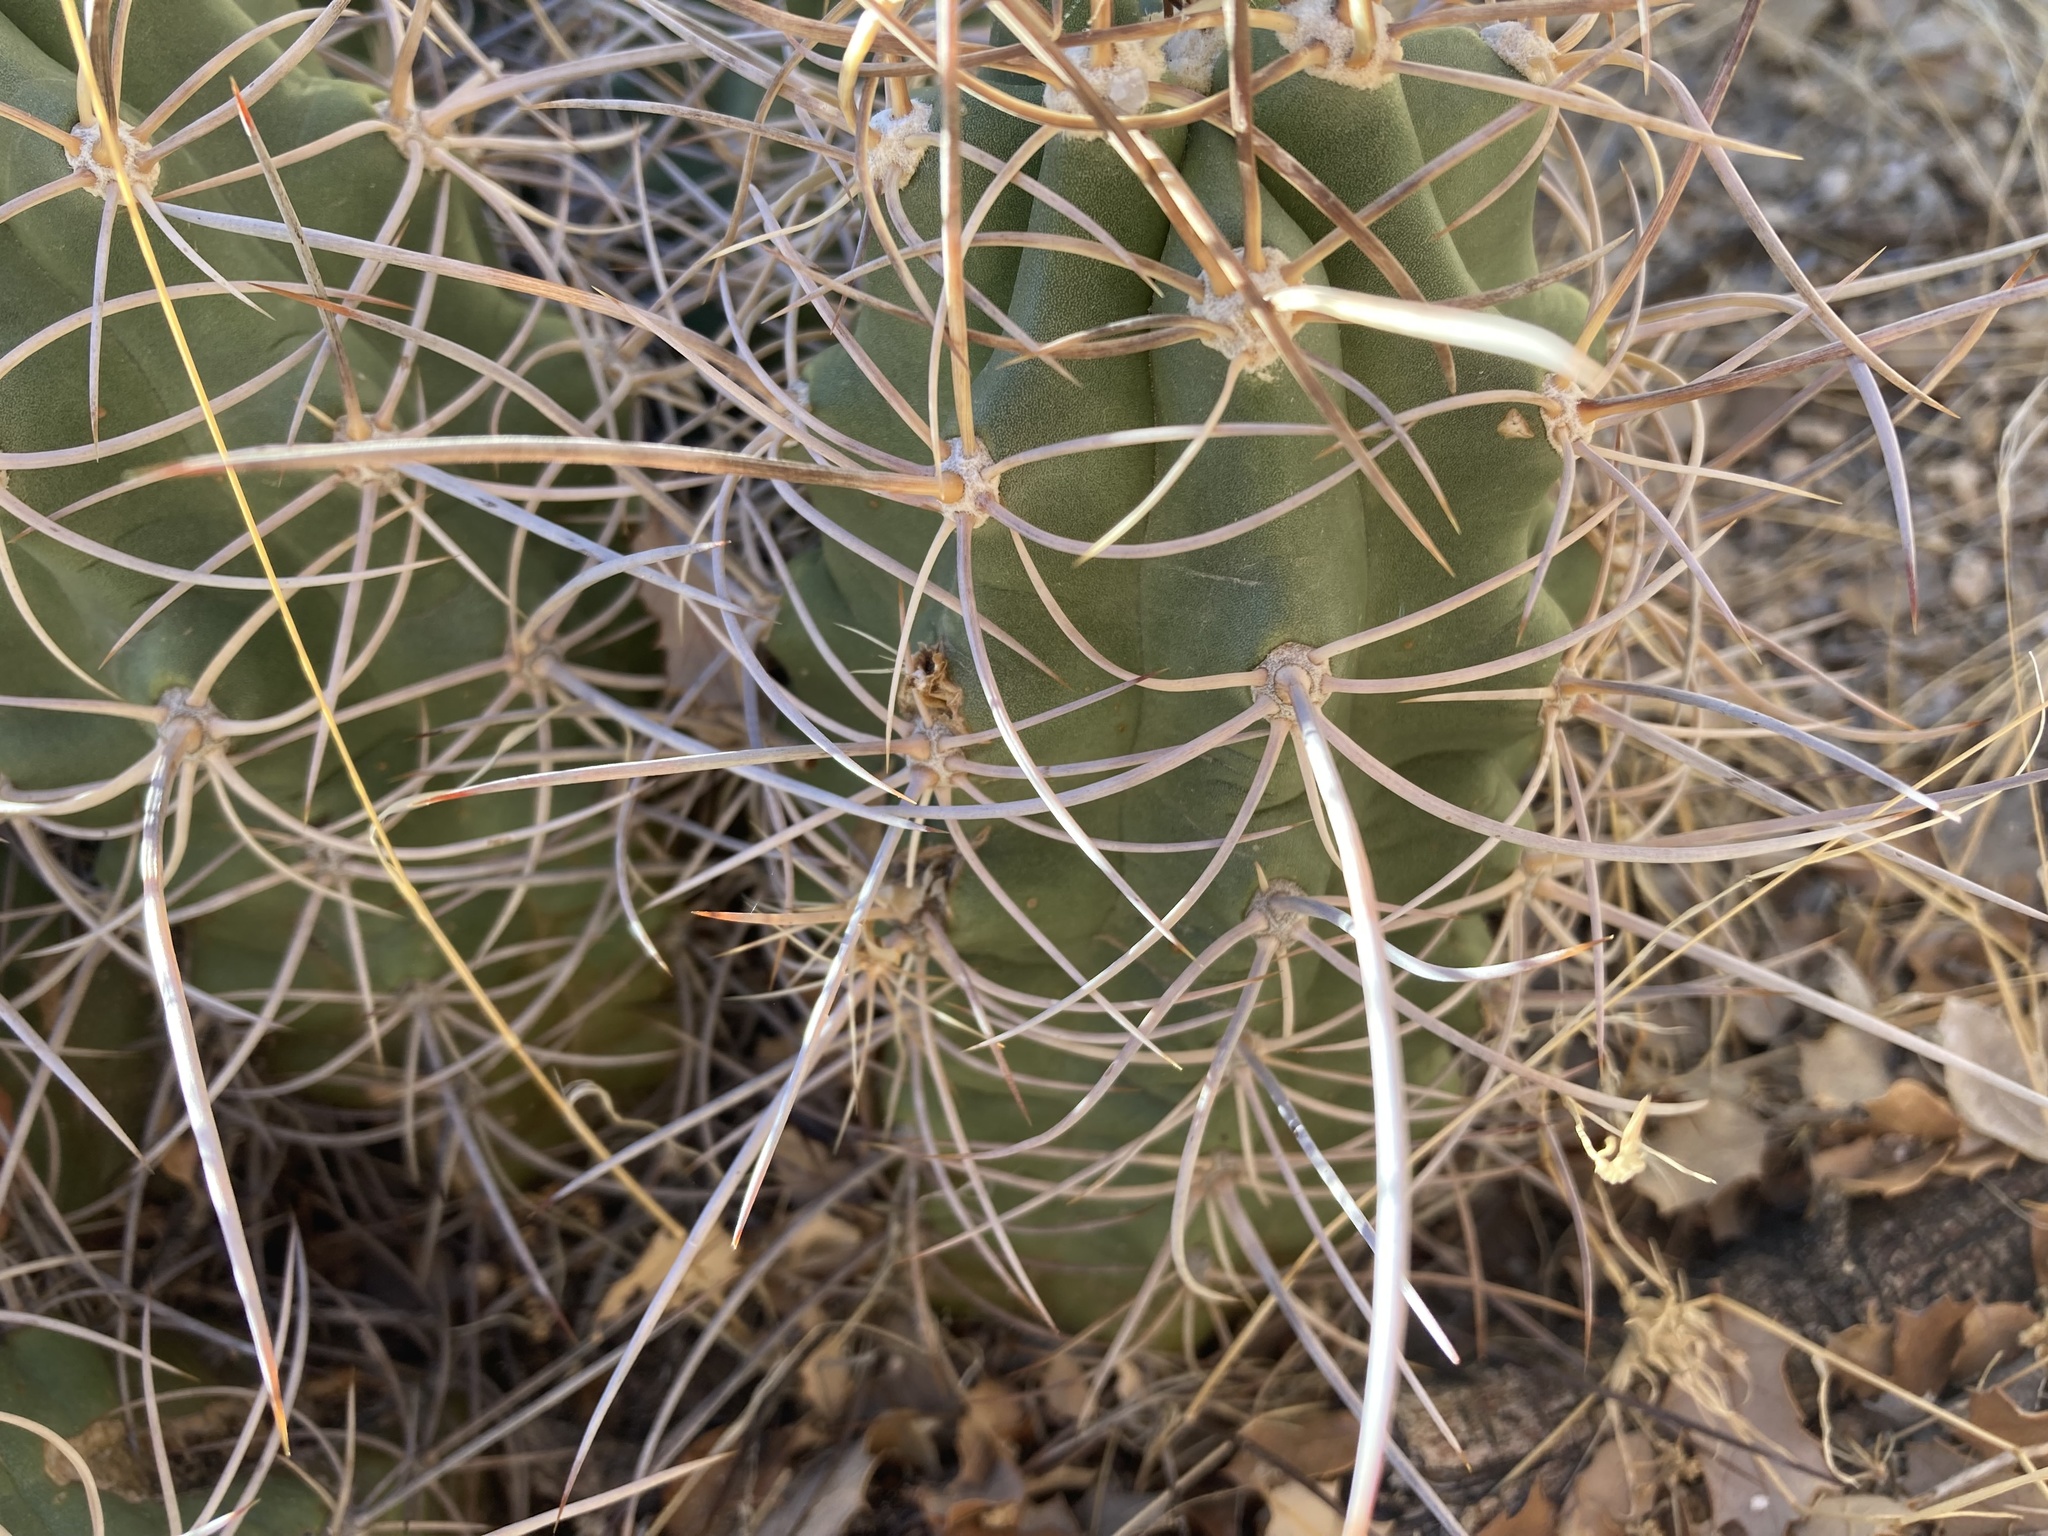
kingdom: Plantae
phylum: Tracheophyta
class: Magnoliopsida
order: Caryophyllales
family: Cactaceae
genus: Echinocereus
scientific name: Echinocereus triglochidiatus
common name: Claretcup hedgehog
